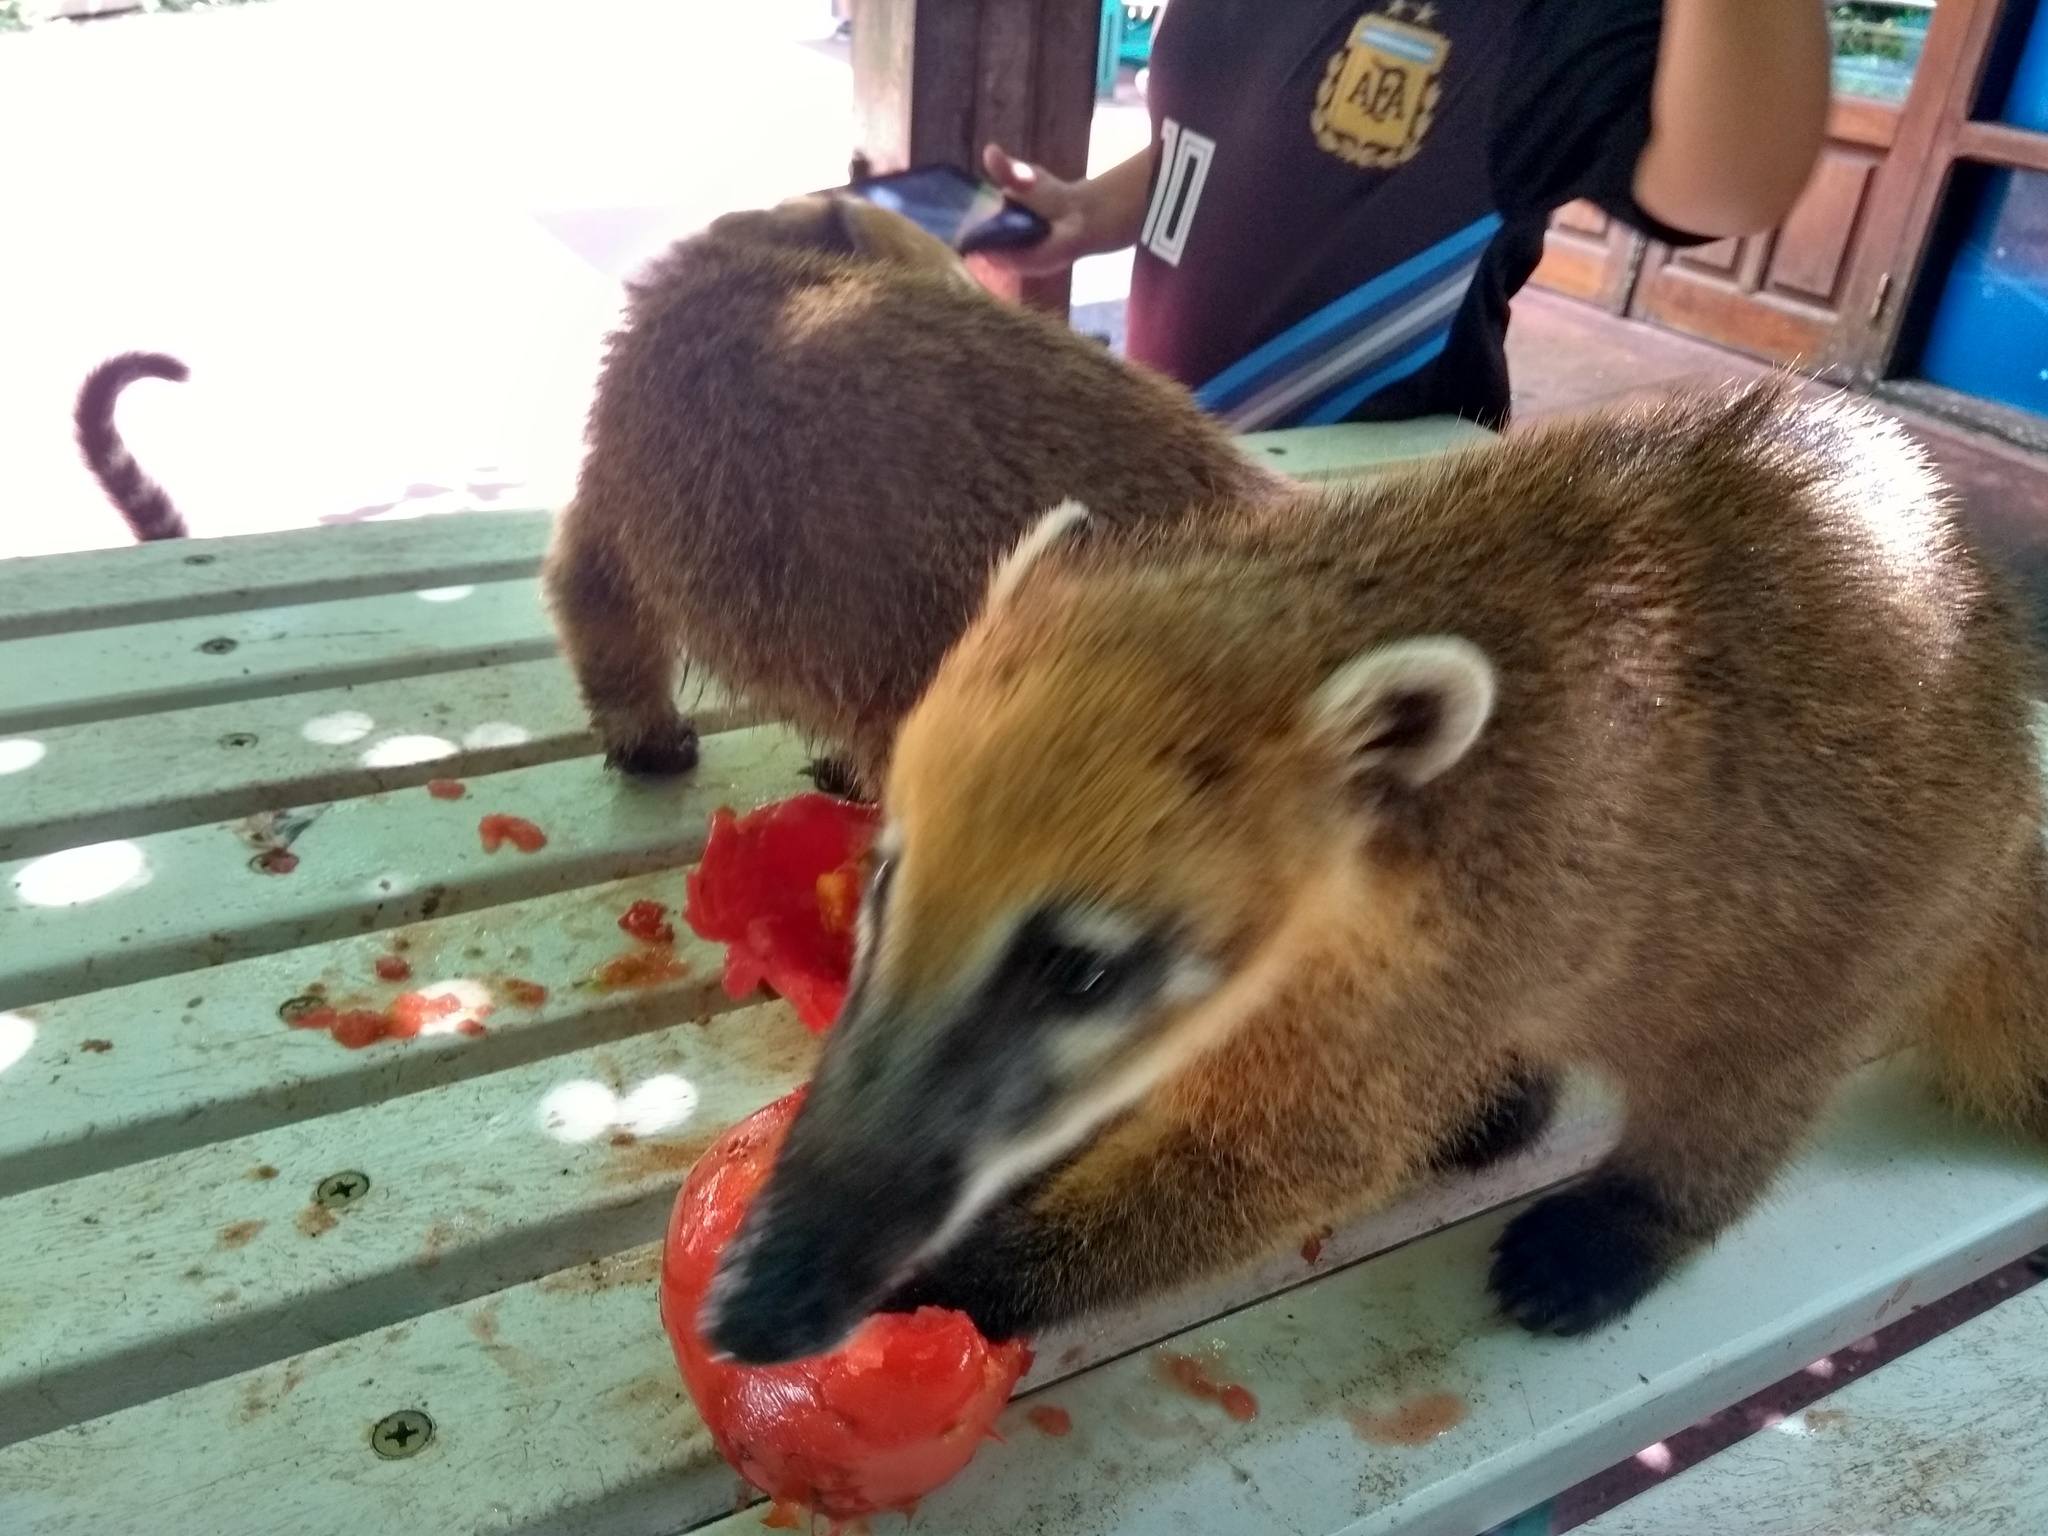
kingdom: Animalia
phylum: Chordata
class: Mammalia
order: Carnivora
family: Procyonidae
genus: Nasua
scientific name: Nasua nasua
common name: South american coati
